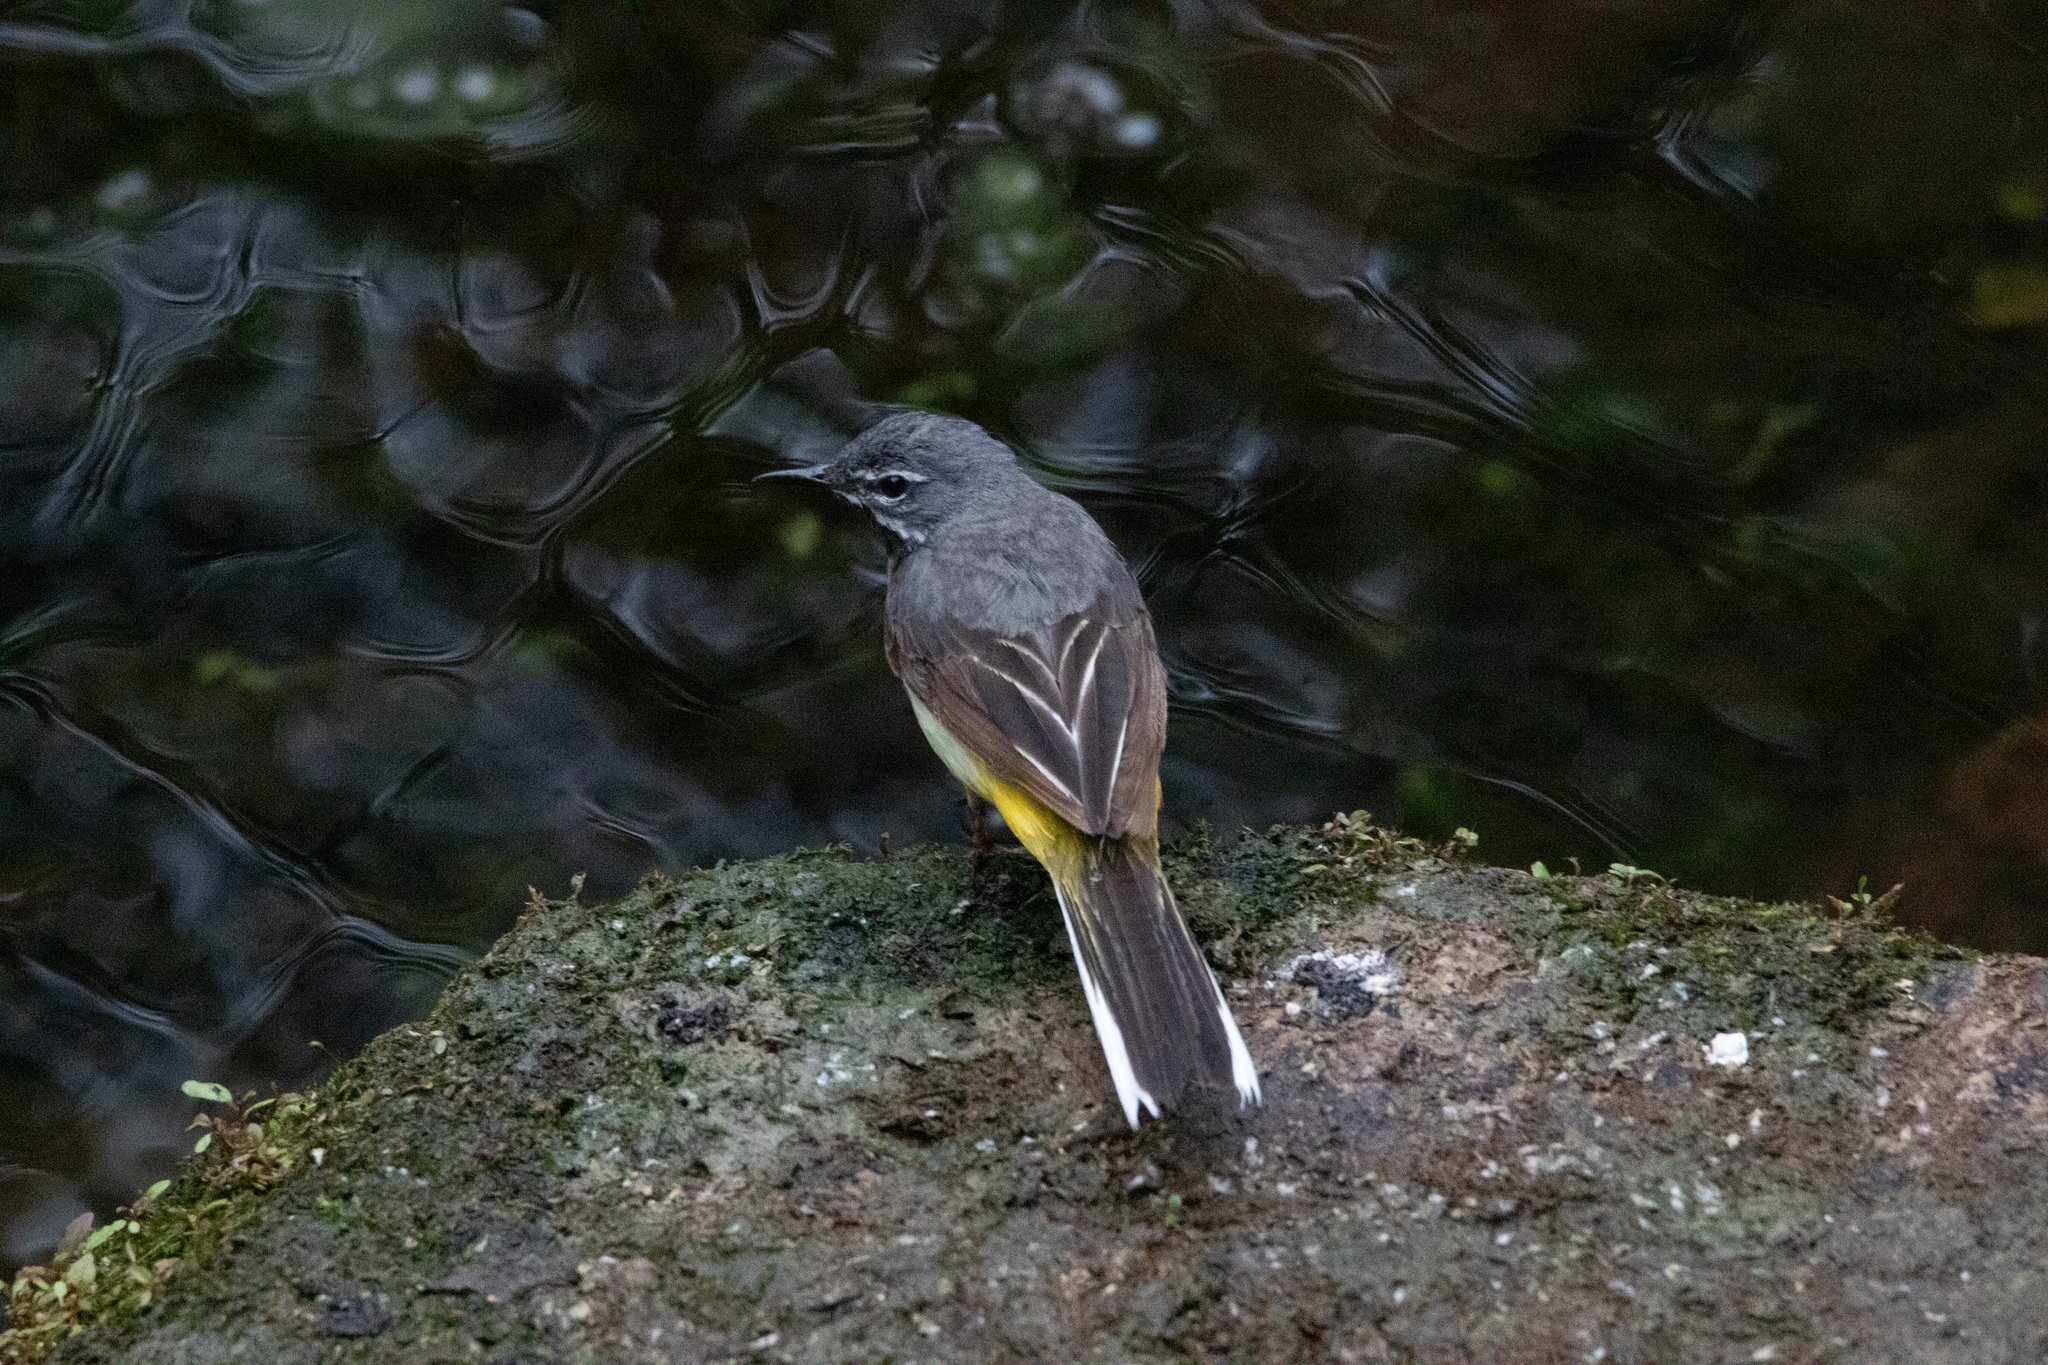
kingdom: Animalia
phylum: Chordata
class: Aves
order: Passeriformes
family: Motacillidae
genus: Motacilla
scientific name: Motacilla cinerea
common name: Grey wagtail
